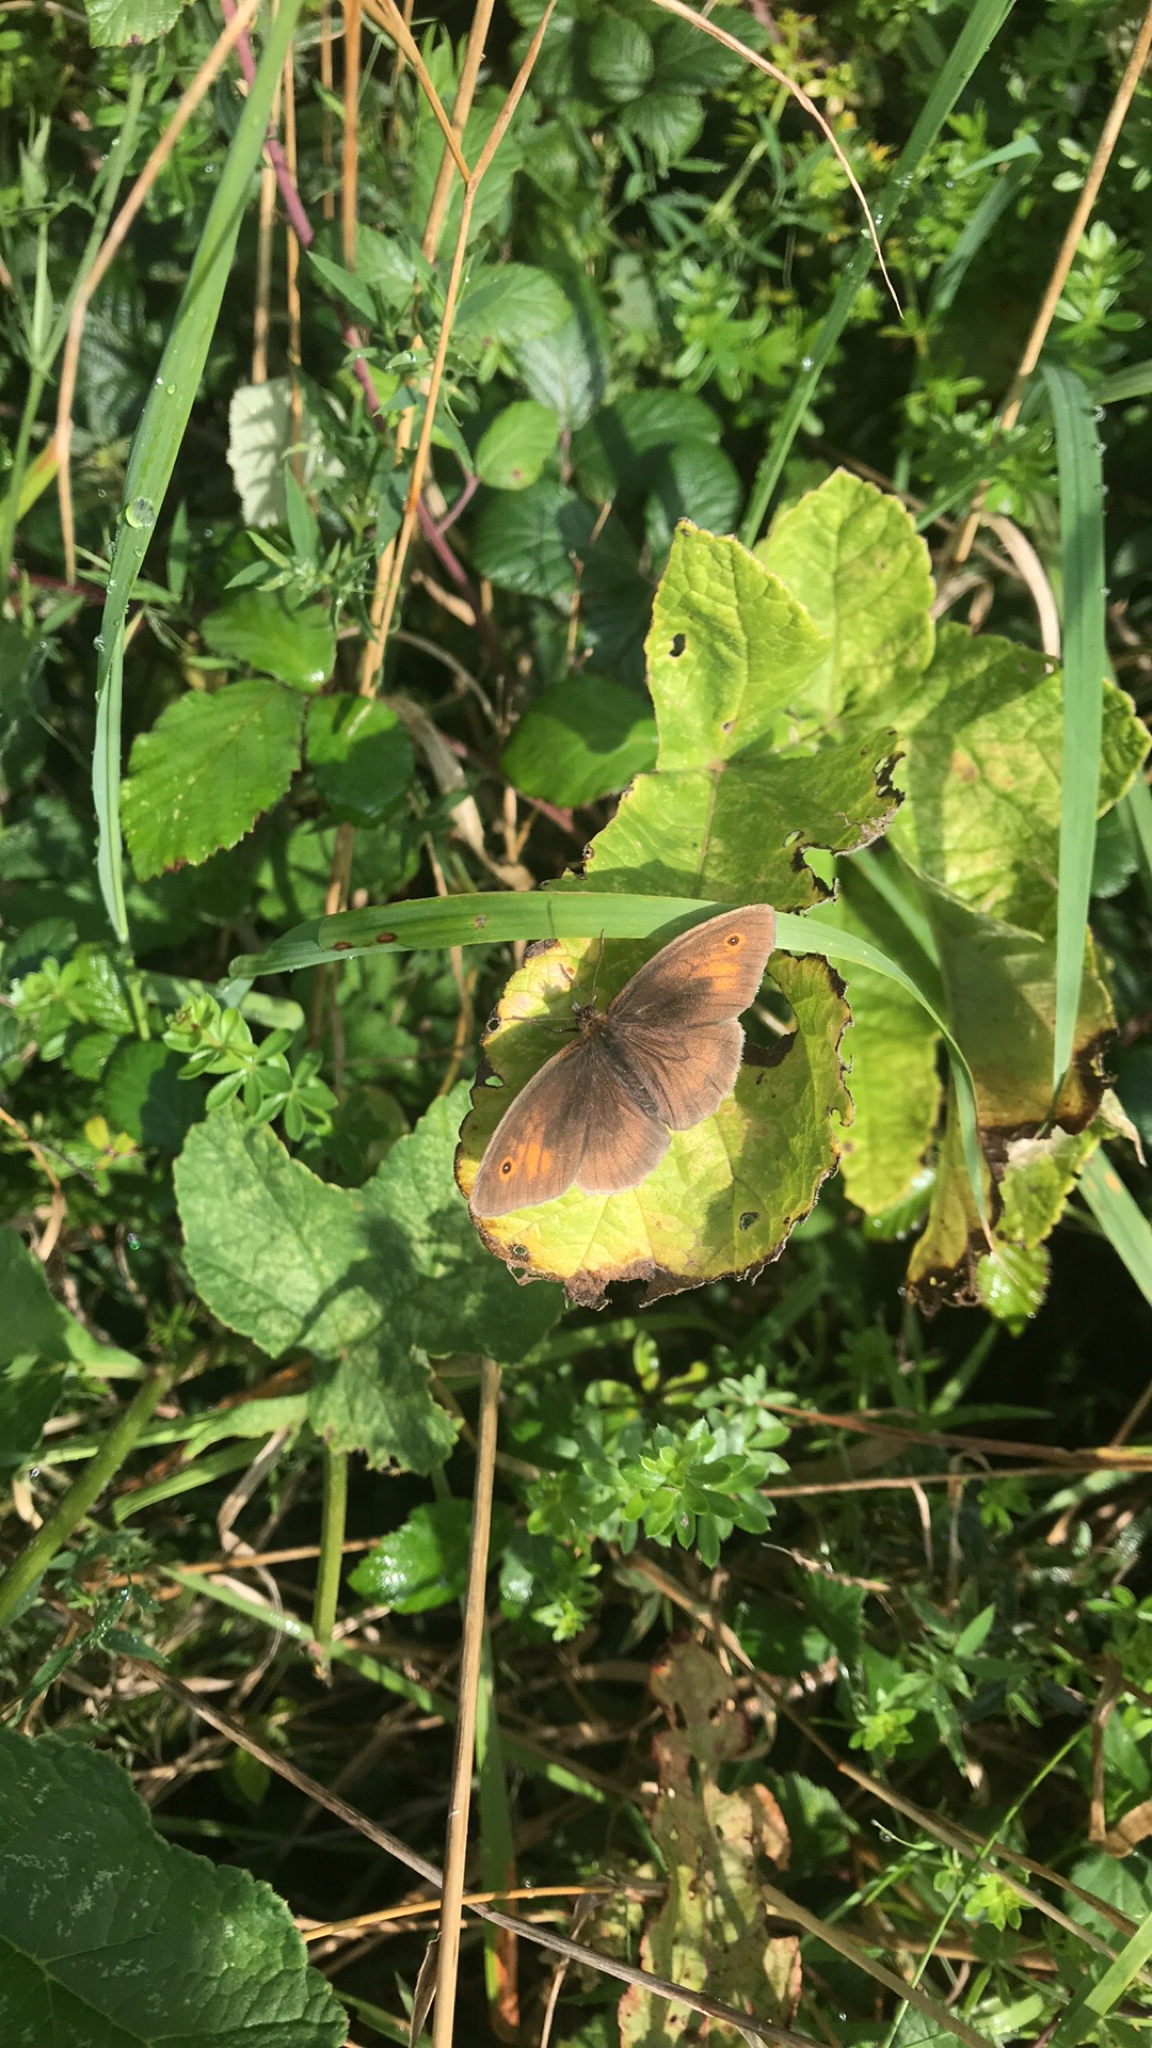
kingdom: Animalia
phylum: Arthropoda
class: Insecta
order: Lepidoptera
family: Nymphalidae
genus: Maniola
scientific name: Maniola jurtina
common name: Meadow brown
